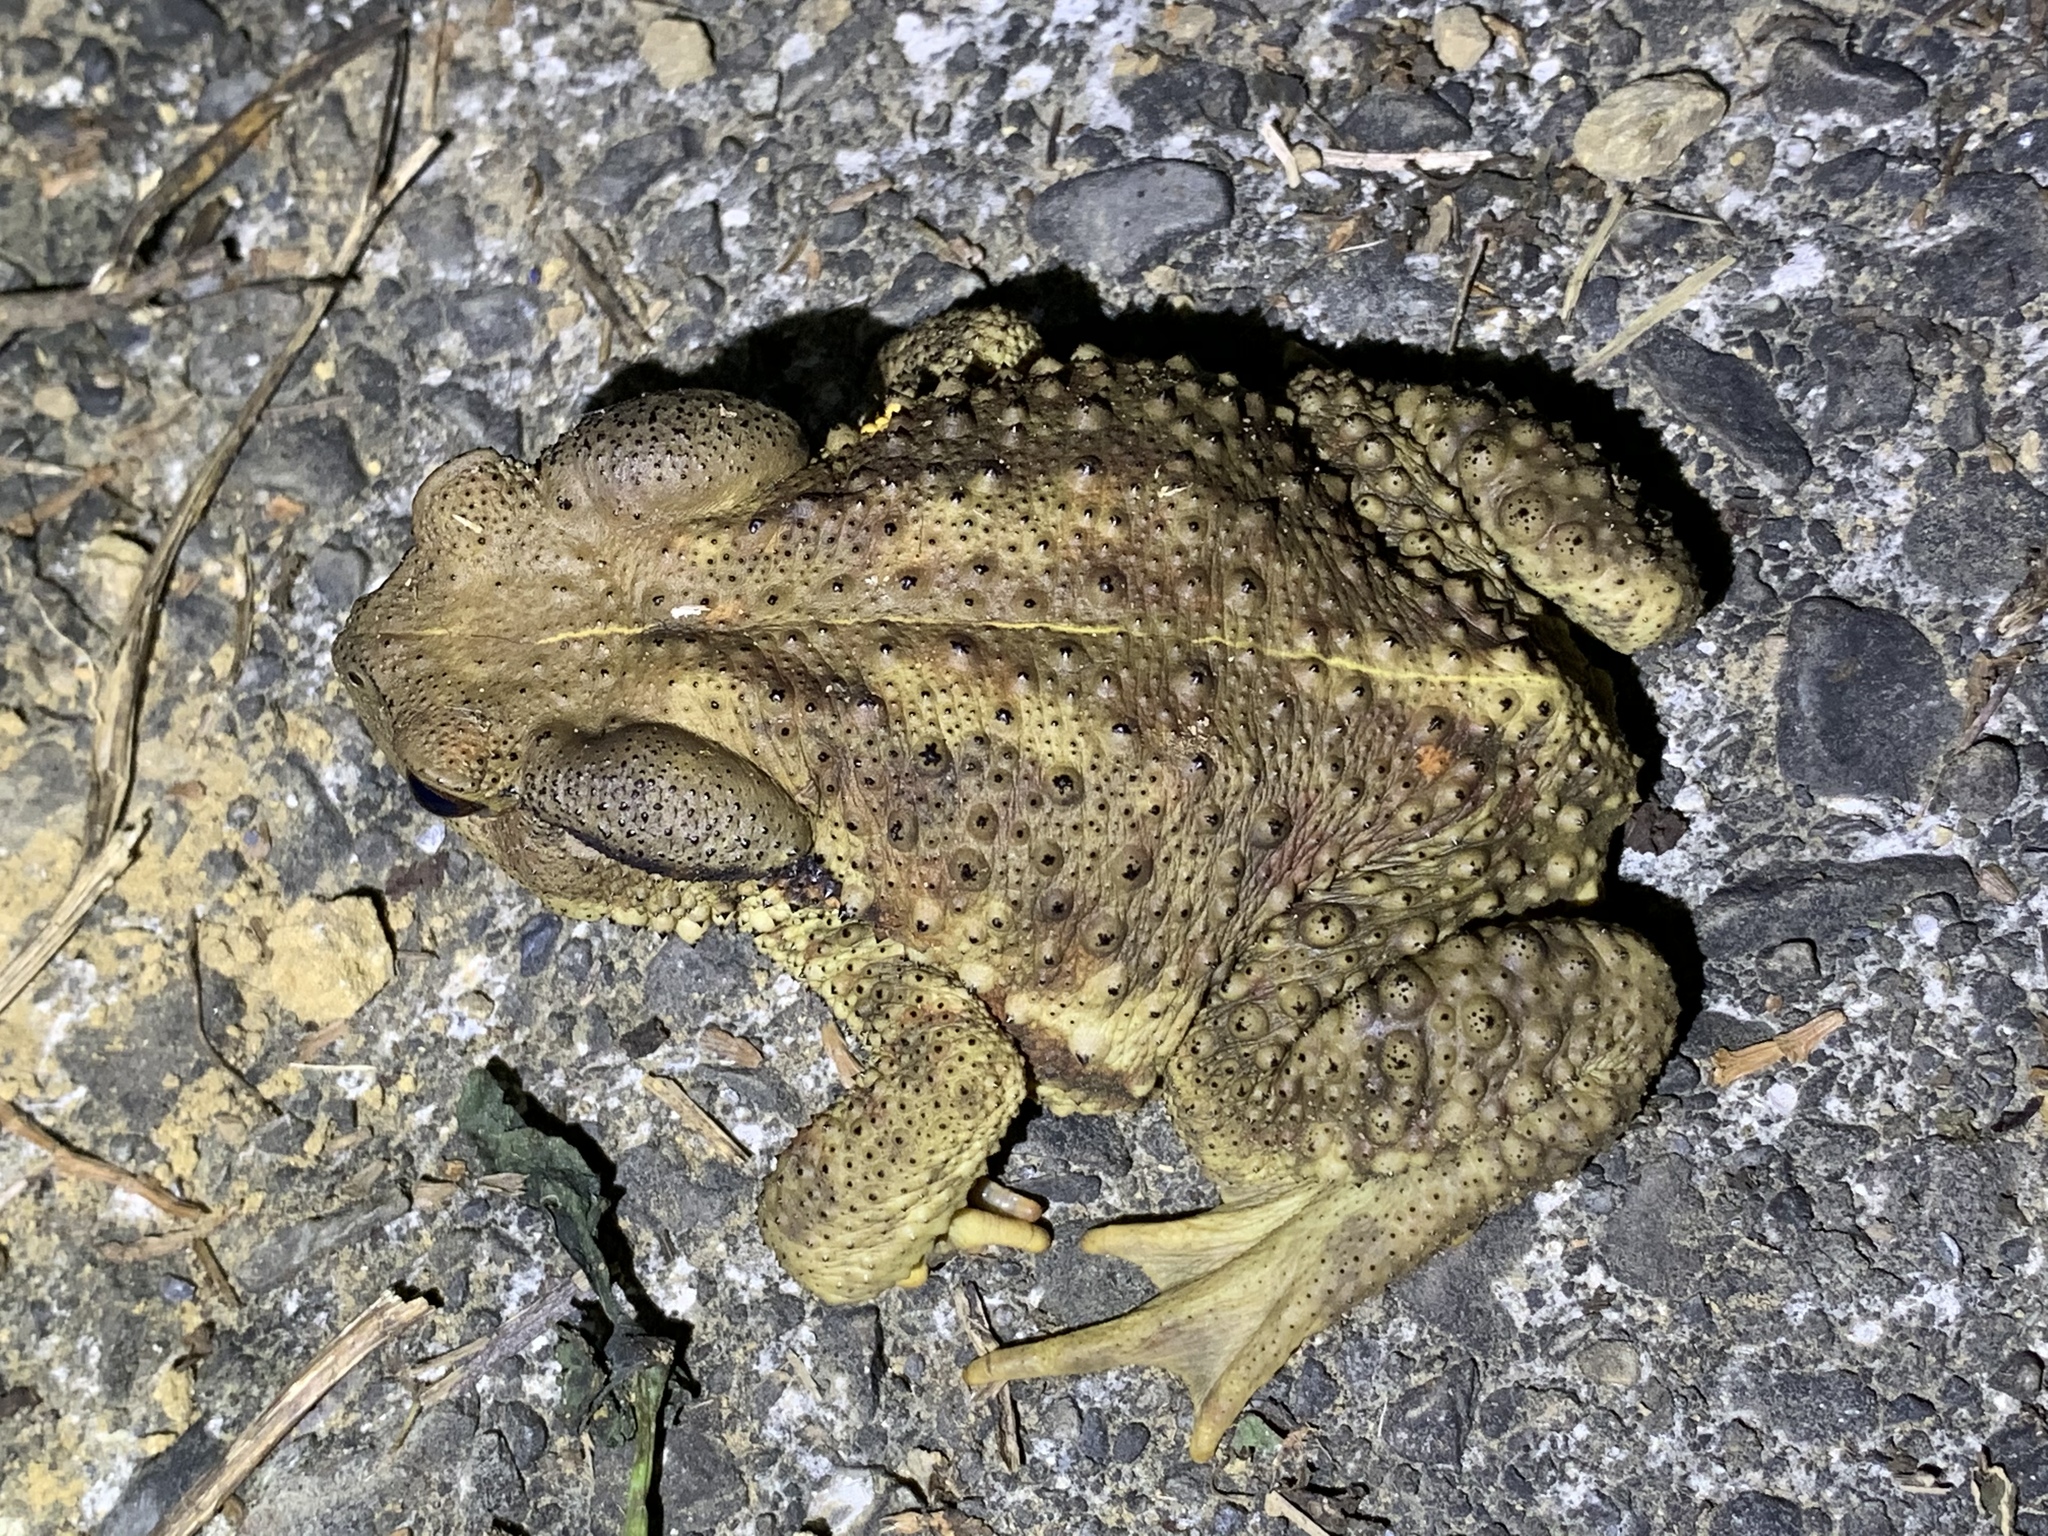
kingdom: Animalia
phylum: Chordata
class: Amphibia
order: Anura
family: Bufonidae
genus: Bufo
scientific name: Bufo bankorensis
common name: Bankor toad
